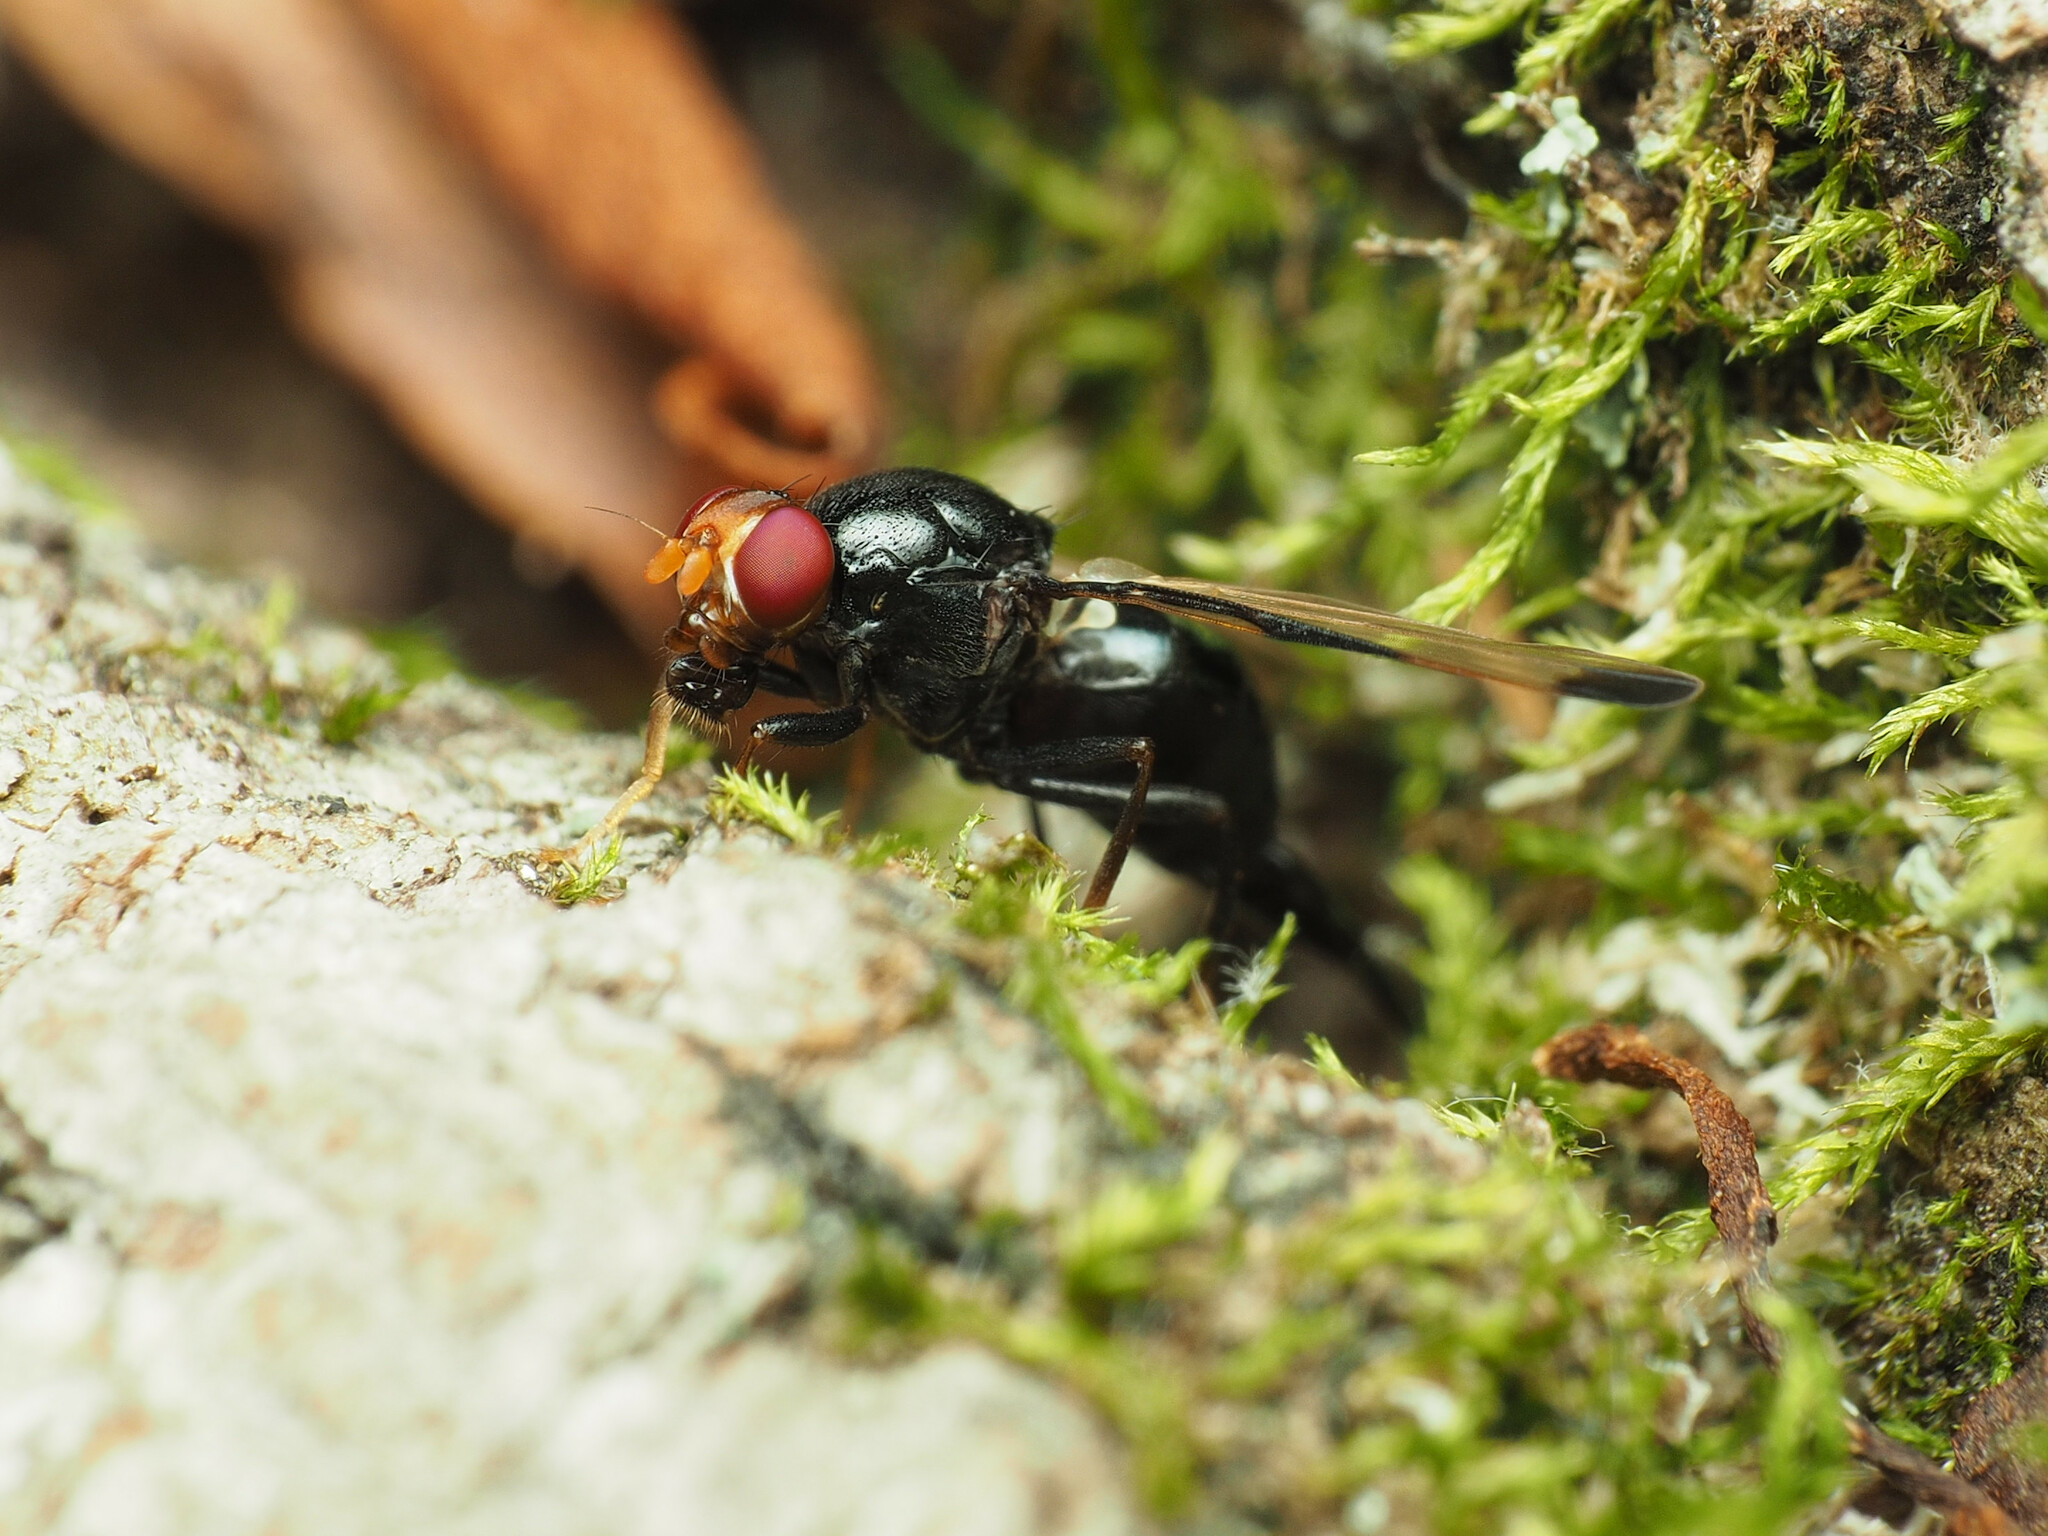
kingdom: Animalia
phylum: Arthropoda
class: Insecta
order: Diptera
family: Ulidiidae
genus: Pseudoseioptera
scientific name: Pseudoseioptera albipes
